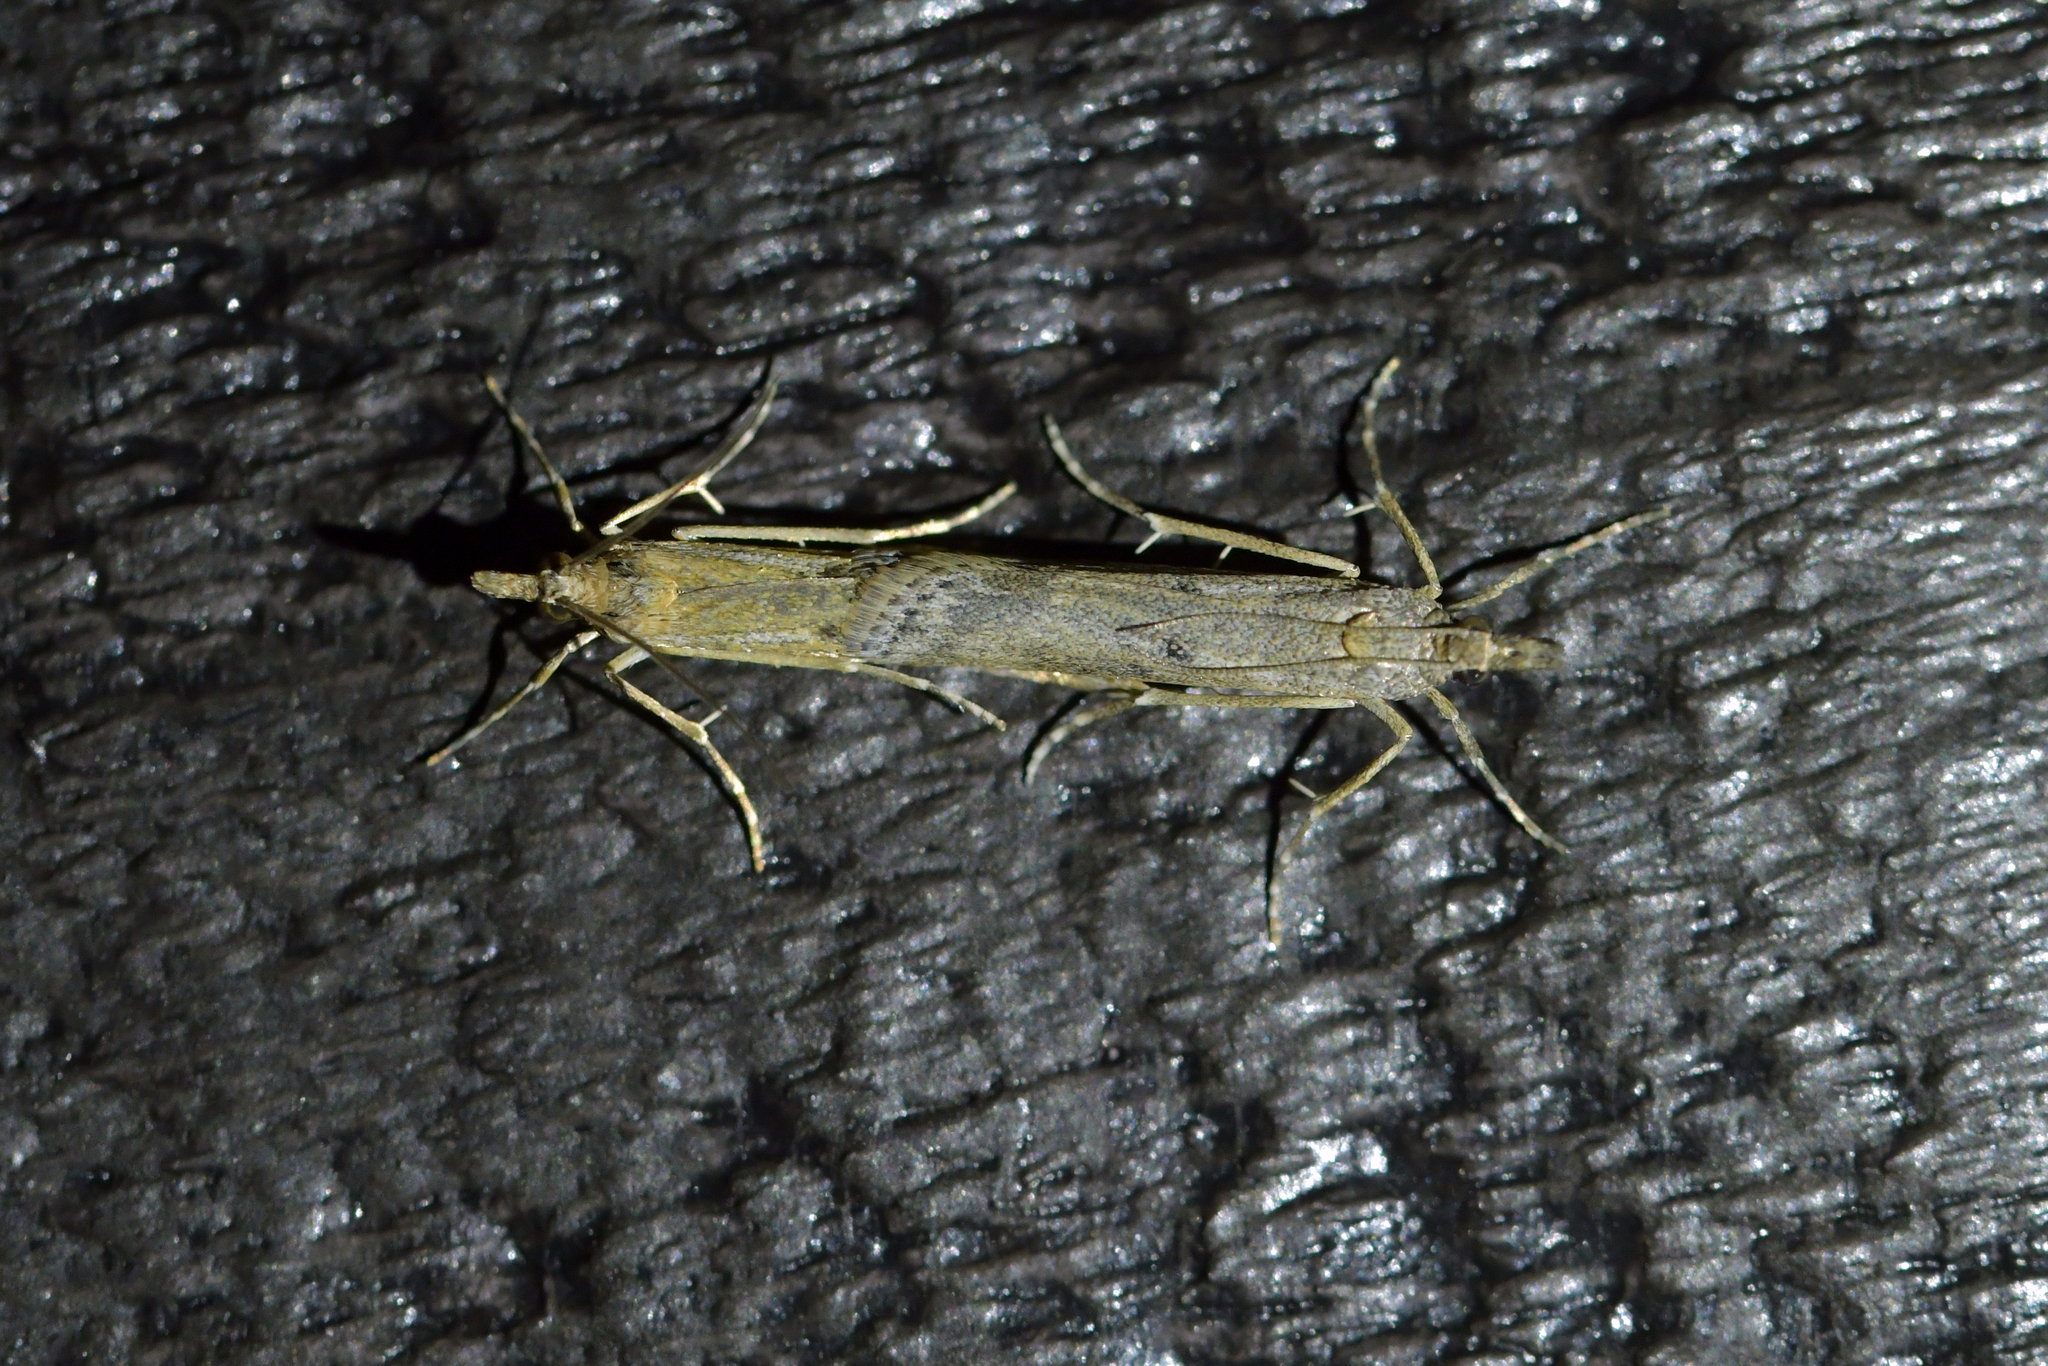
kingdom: Animalia
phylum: Arthropoda
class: Insecta
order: Lepidoptera
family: Crambidae
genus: Eudonia
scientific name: Eudonia leptalea
